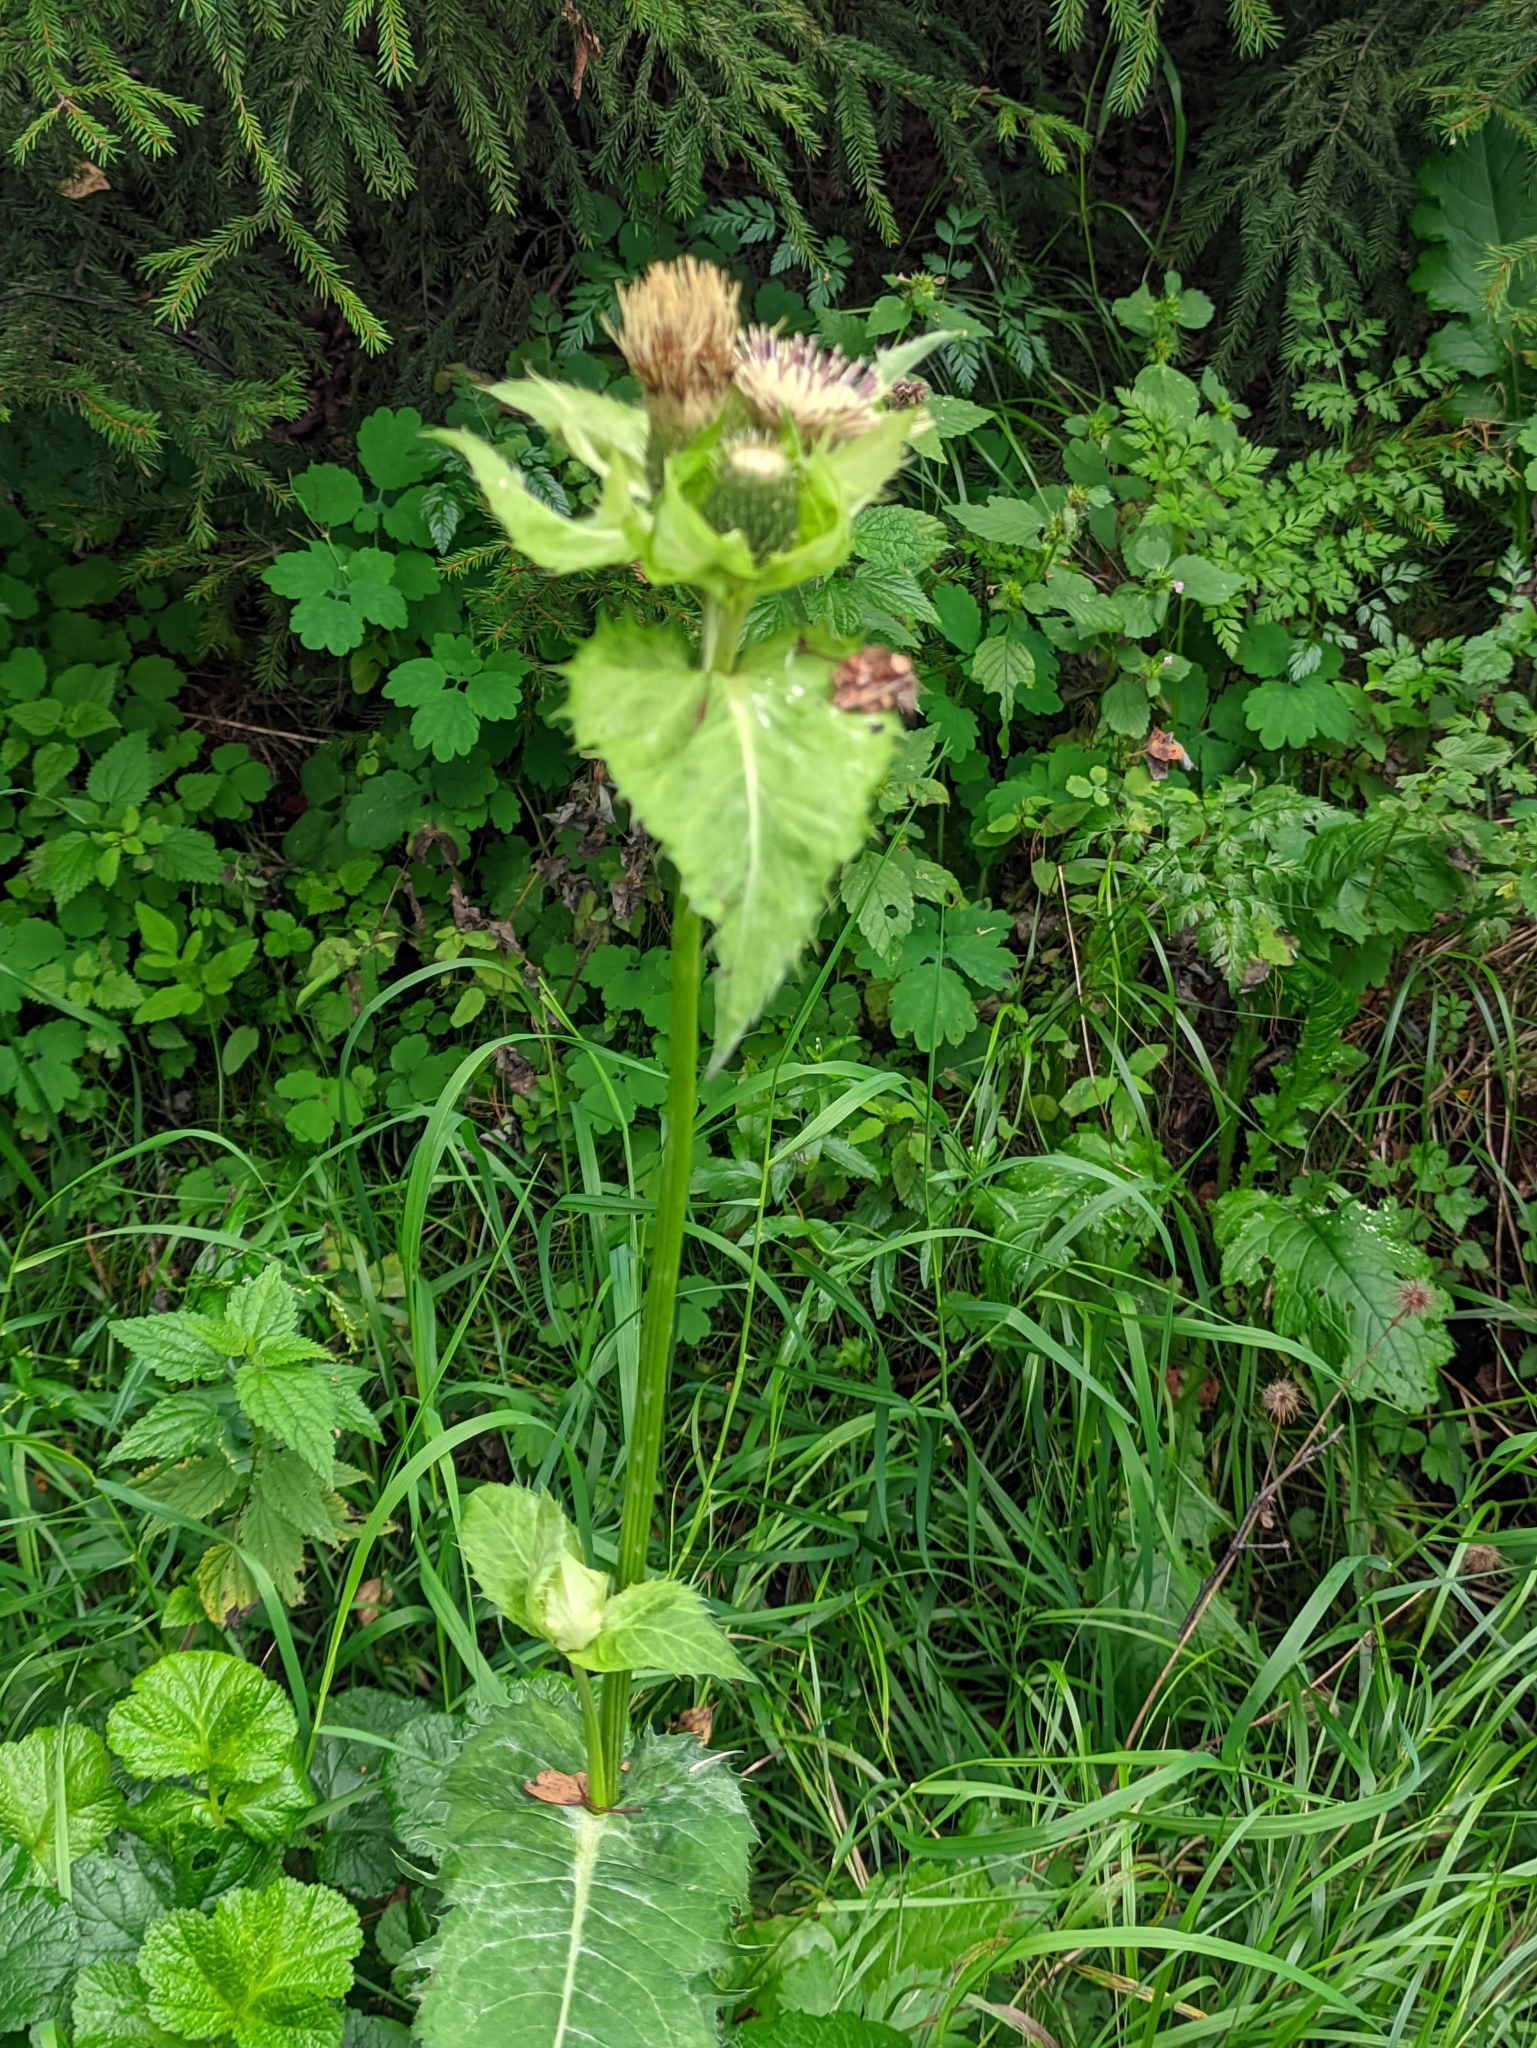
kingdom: Plantae
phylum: Tracheophyta
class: Magnoliopsida
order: Asterales
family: Asteraceae
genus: Cirsium
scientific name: Cirsium oleraceum
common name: Cabbage thistle
